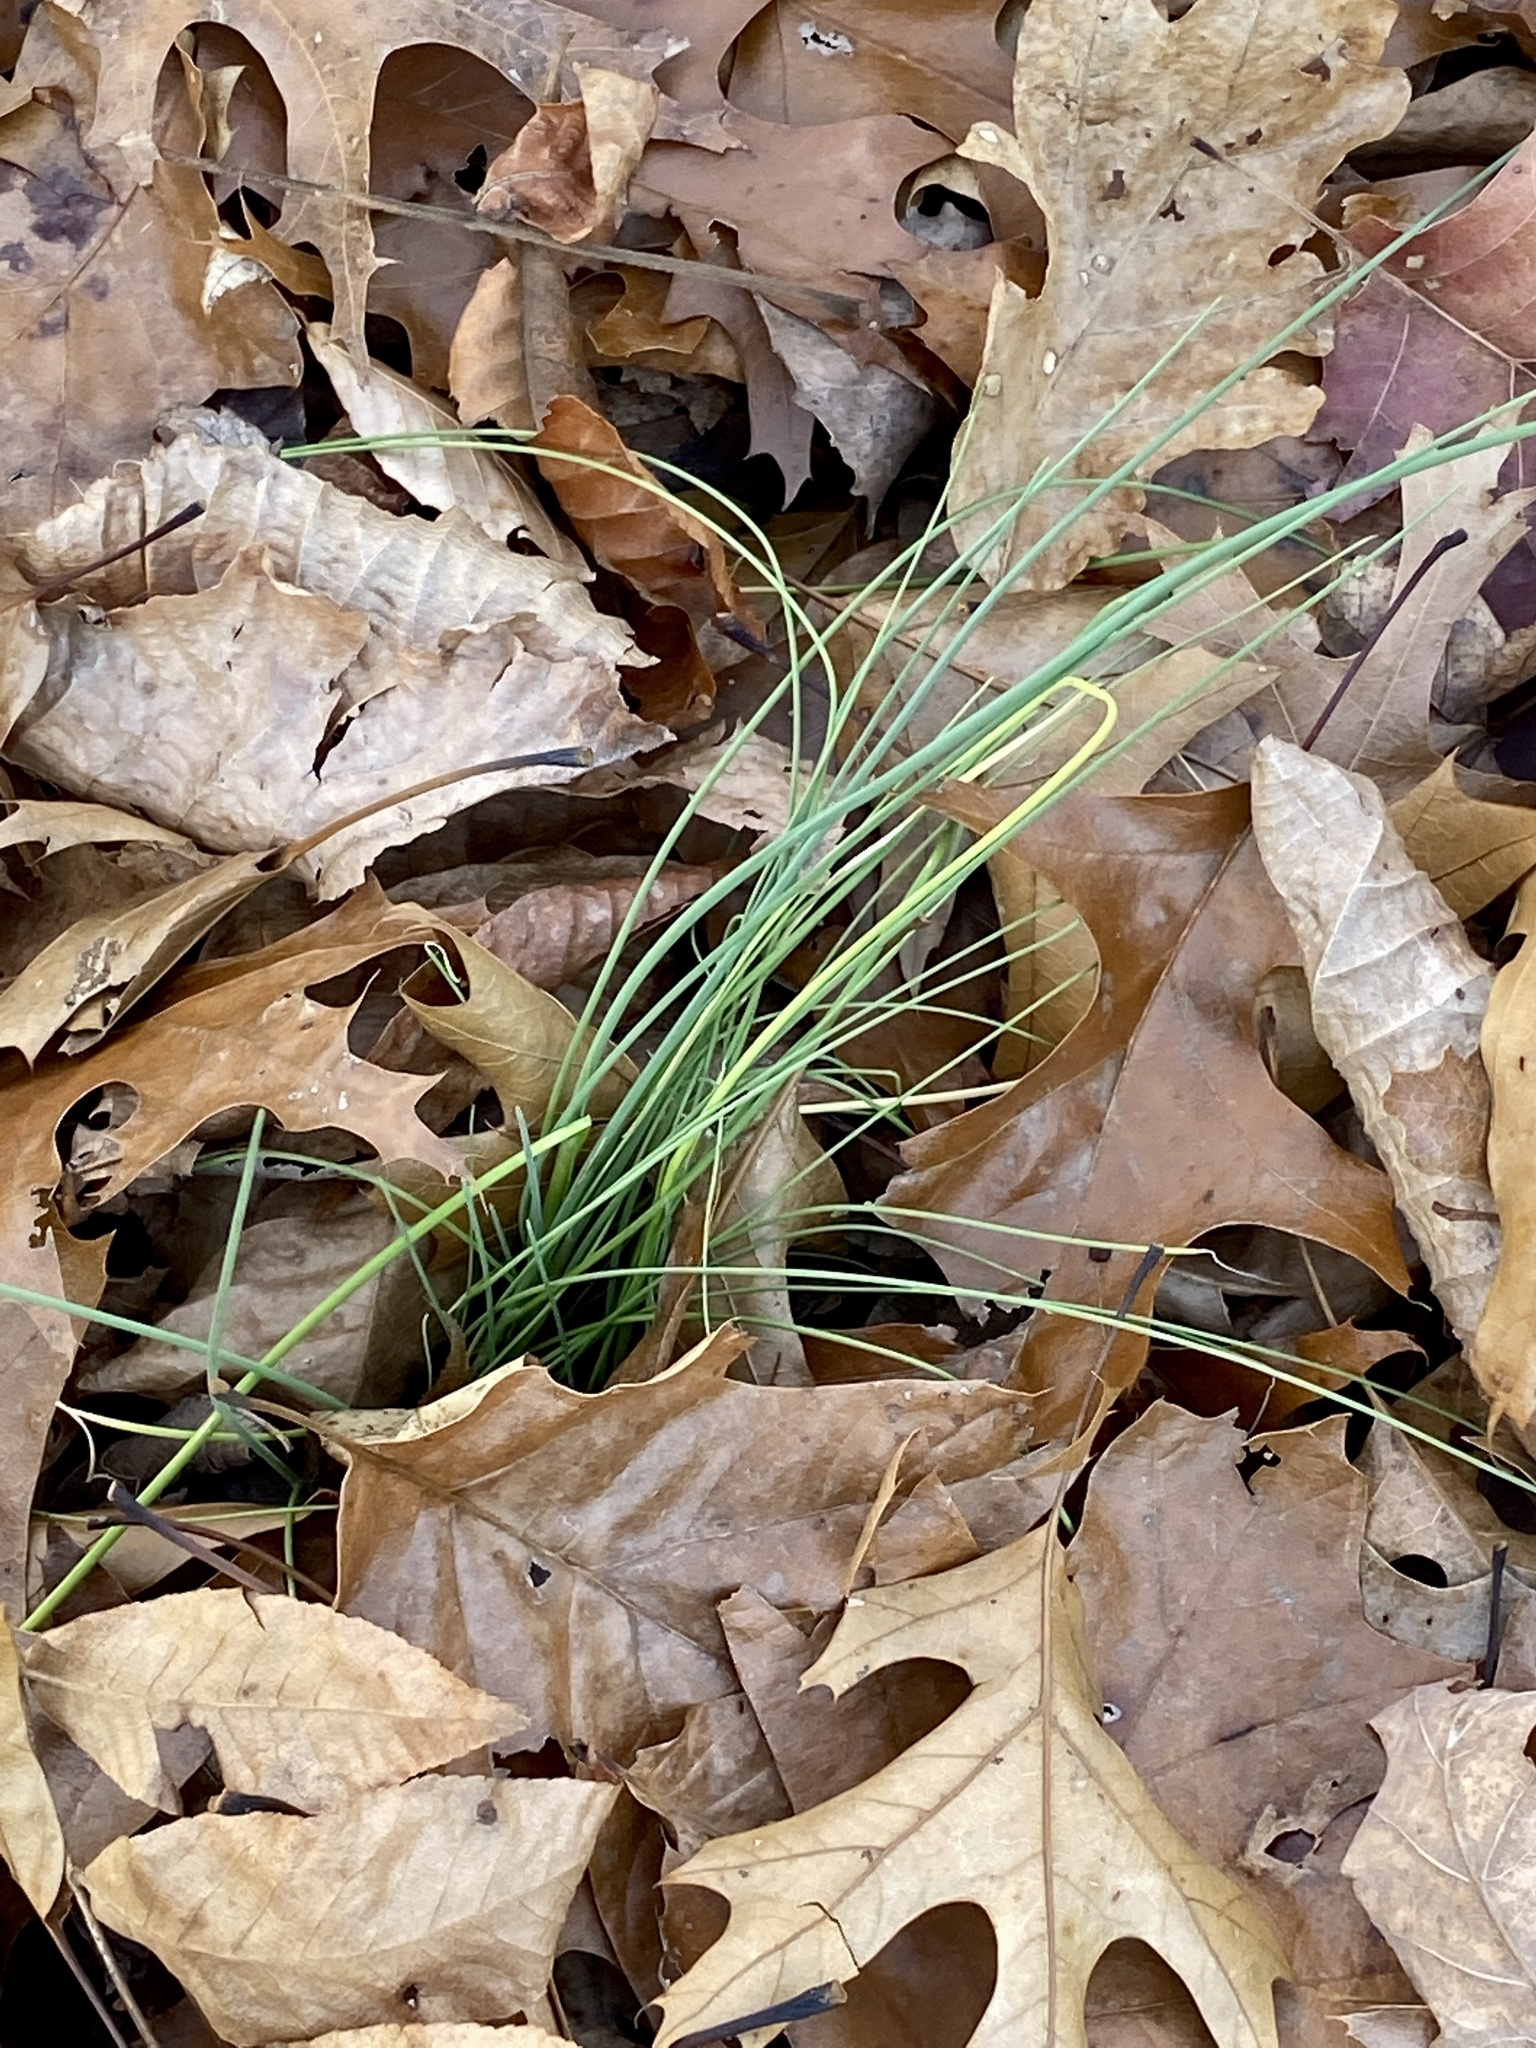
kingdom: Plantae
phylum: Tracheophyta
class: Liliopsida
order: Asparagales
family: Amaryllidaceae
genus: Allium
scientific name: Allium vineale
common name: Crow garlic
